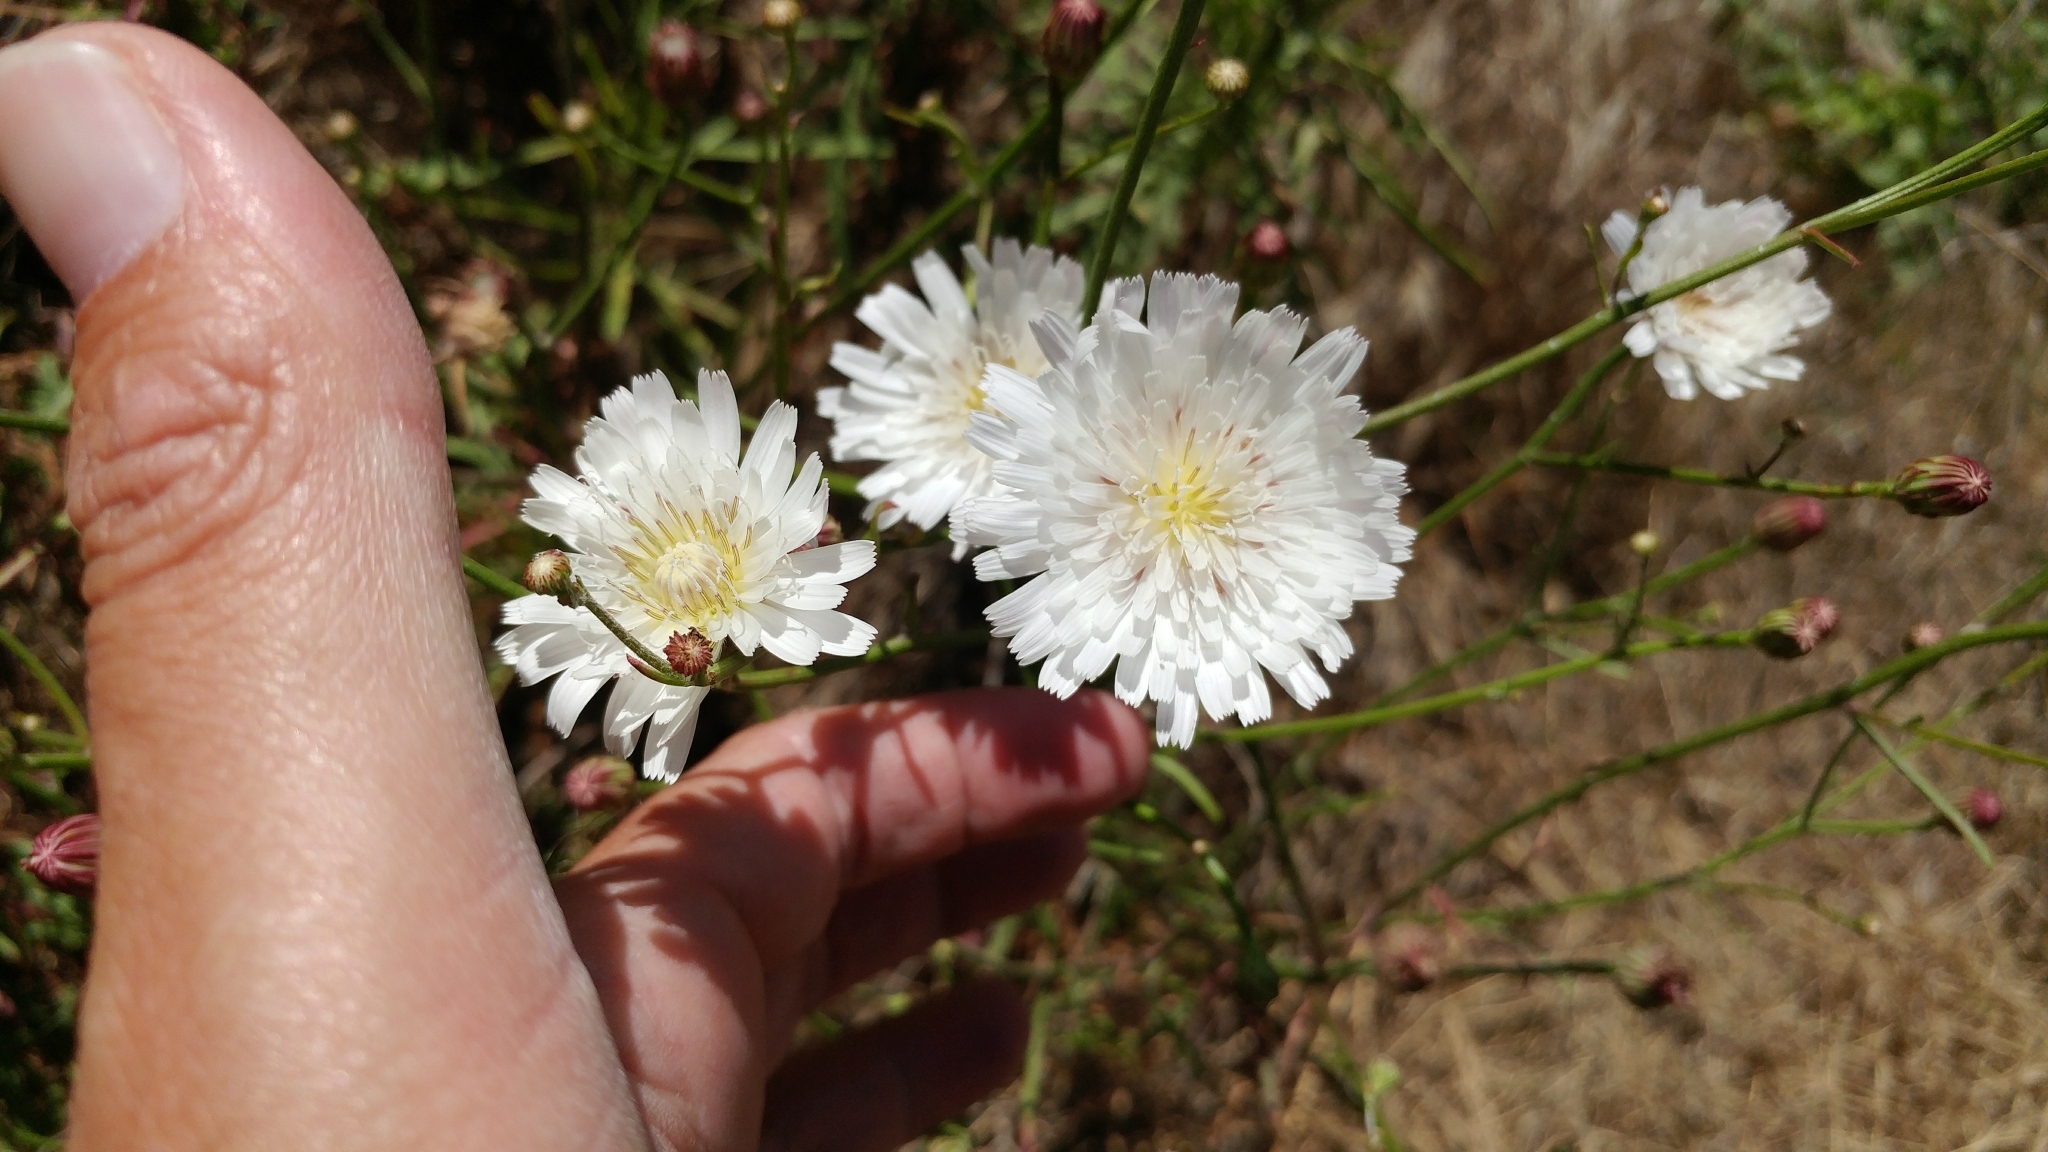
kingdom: Plantae
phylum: Tracheophyta
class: Magnoliopsida
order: Asterales
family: Asteraceae
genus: Malacothrix
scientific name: Malacothrix saxatilis
